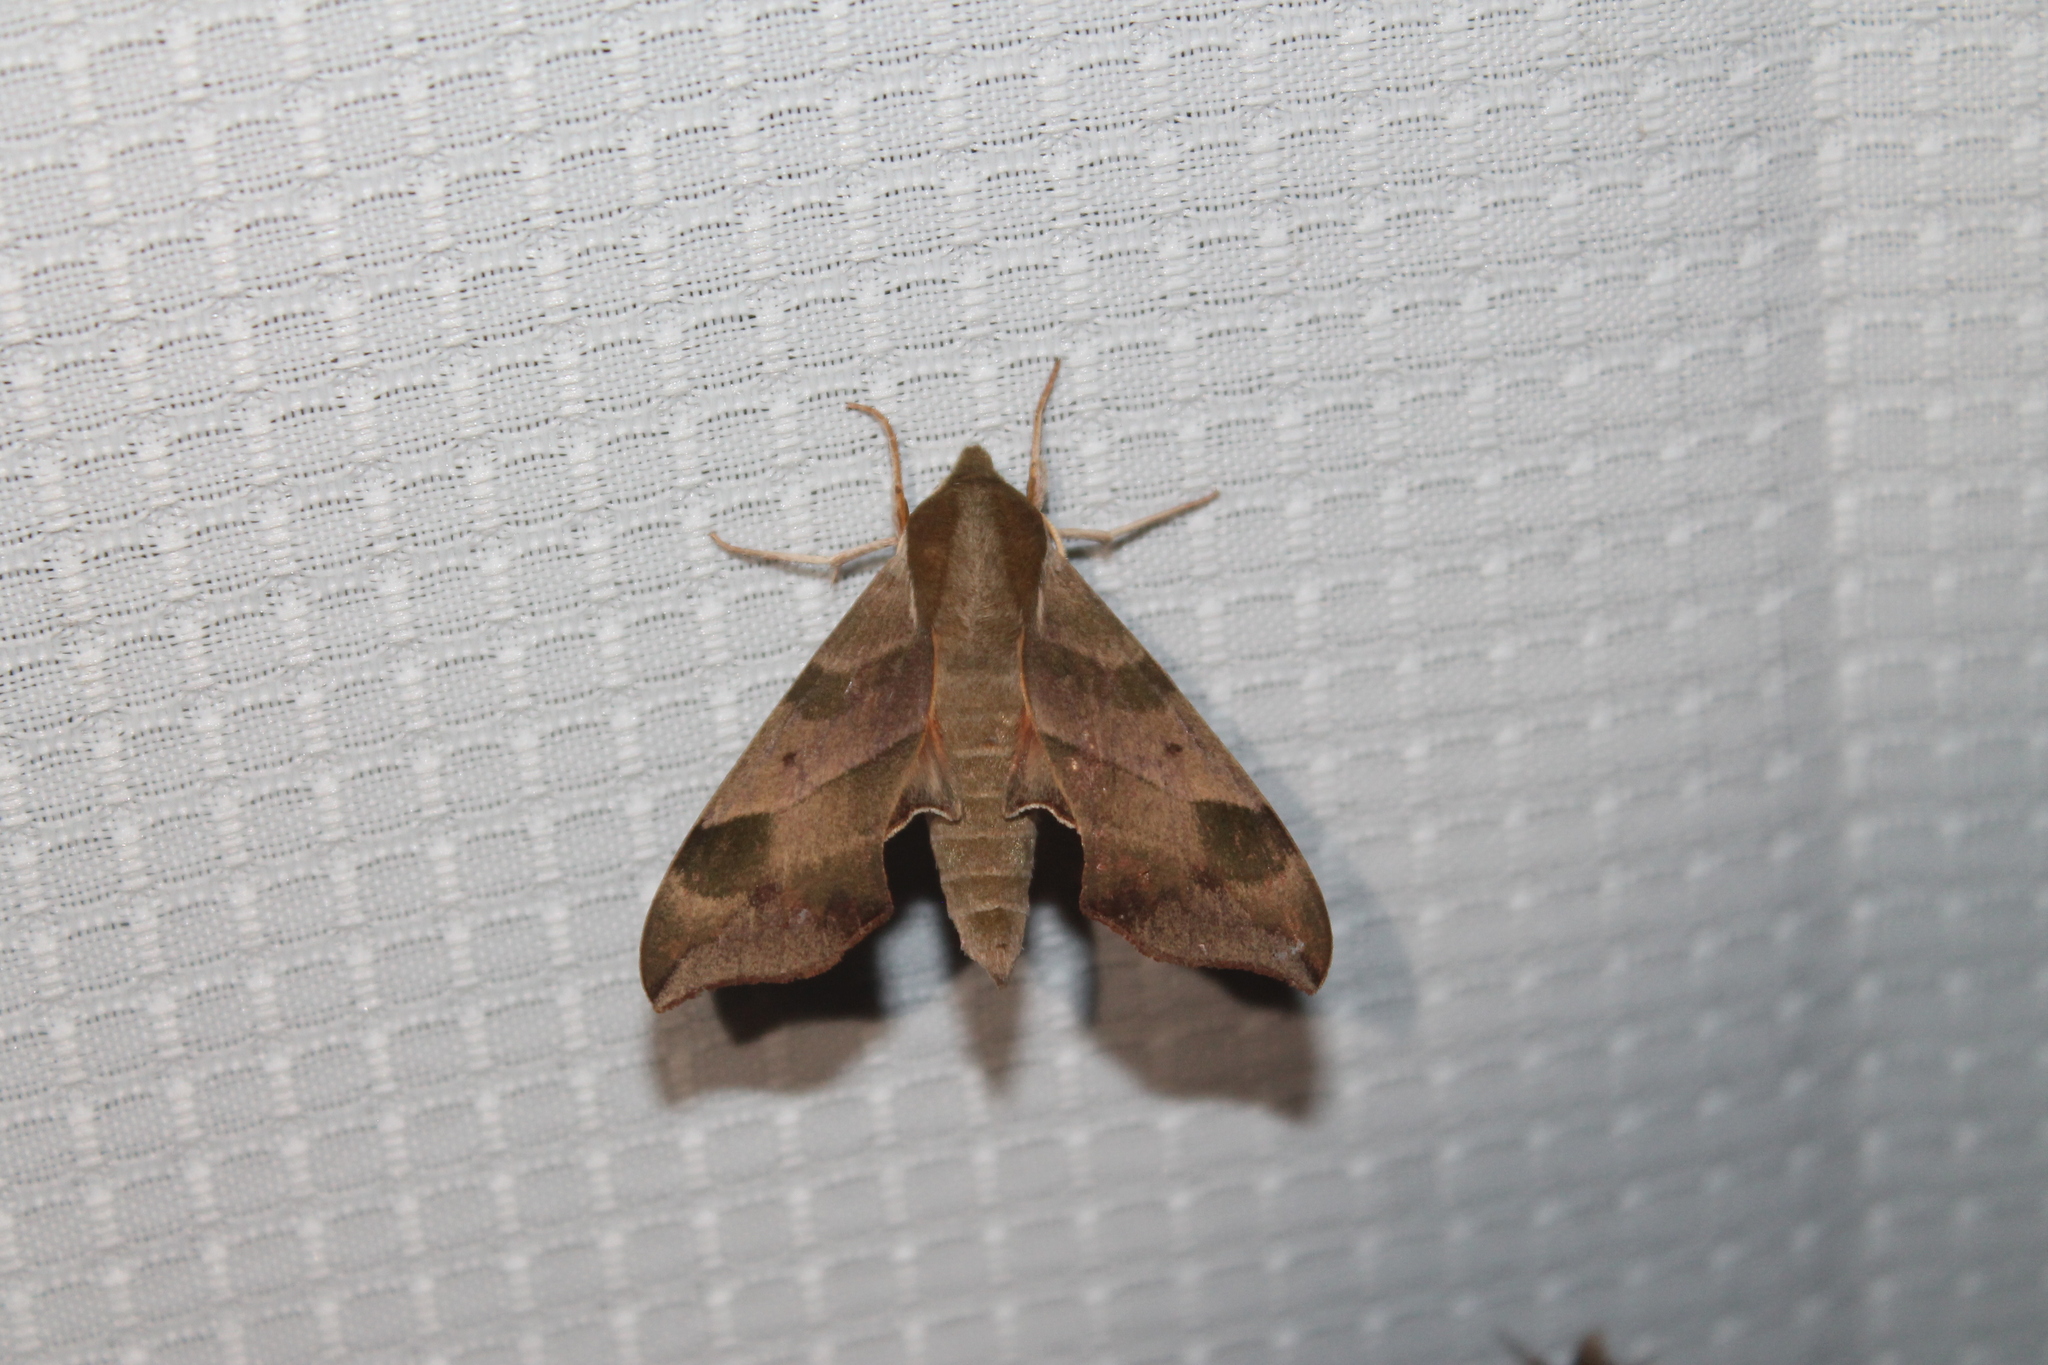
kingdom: Animalia
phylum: Arthropoda
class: Insecta
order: Lepidoptera
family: Sphingidae
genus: Darapsa
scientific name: Darapsa myron
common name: Hog sphinx
